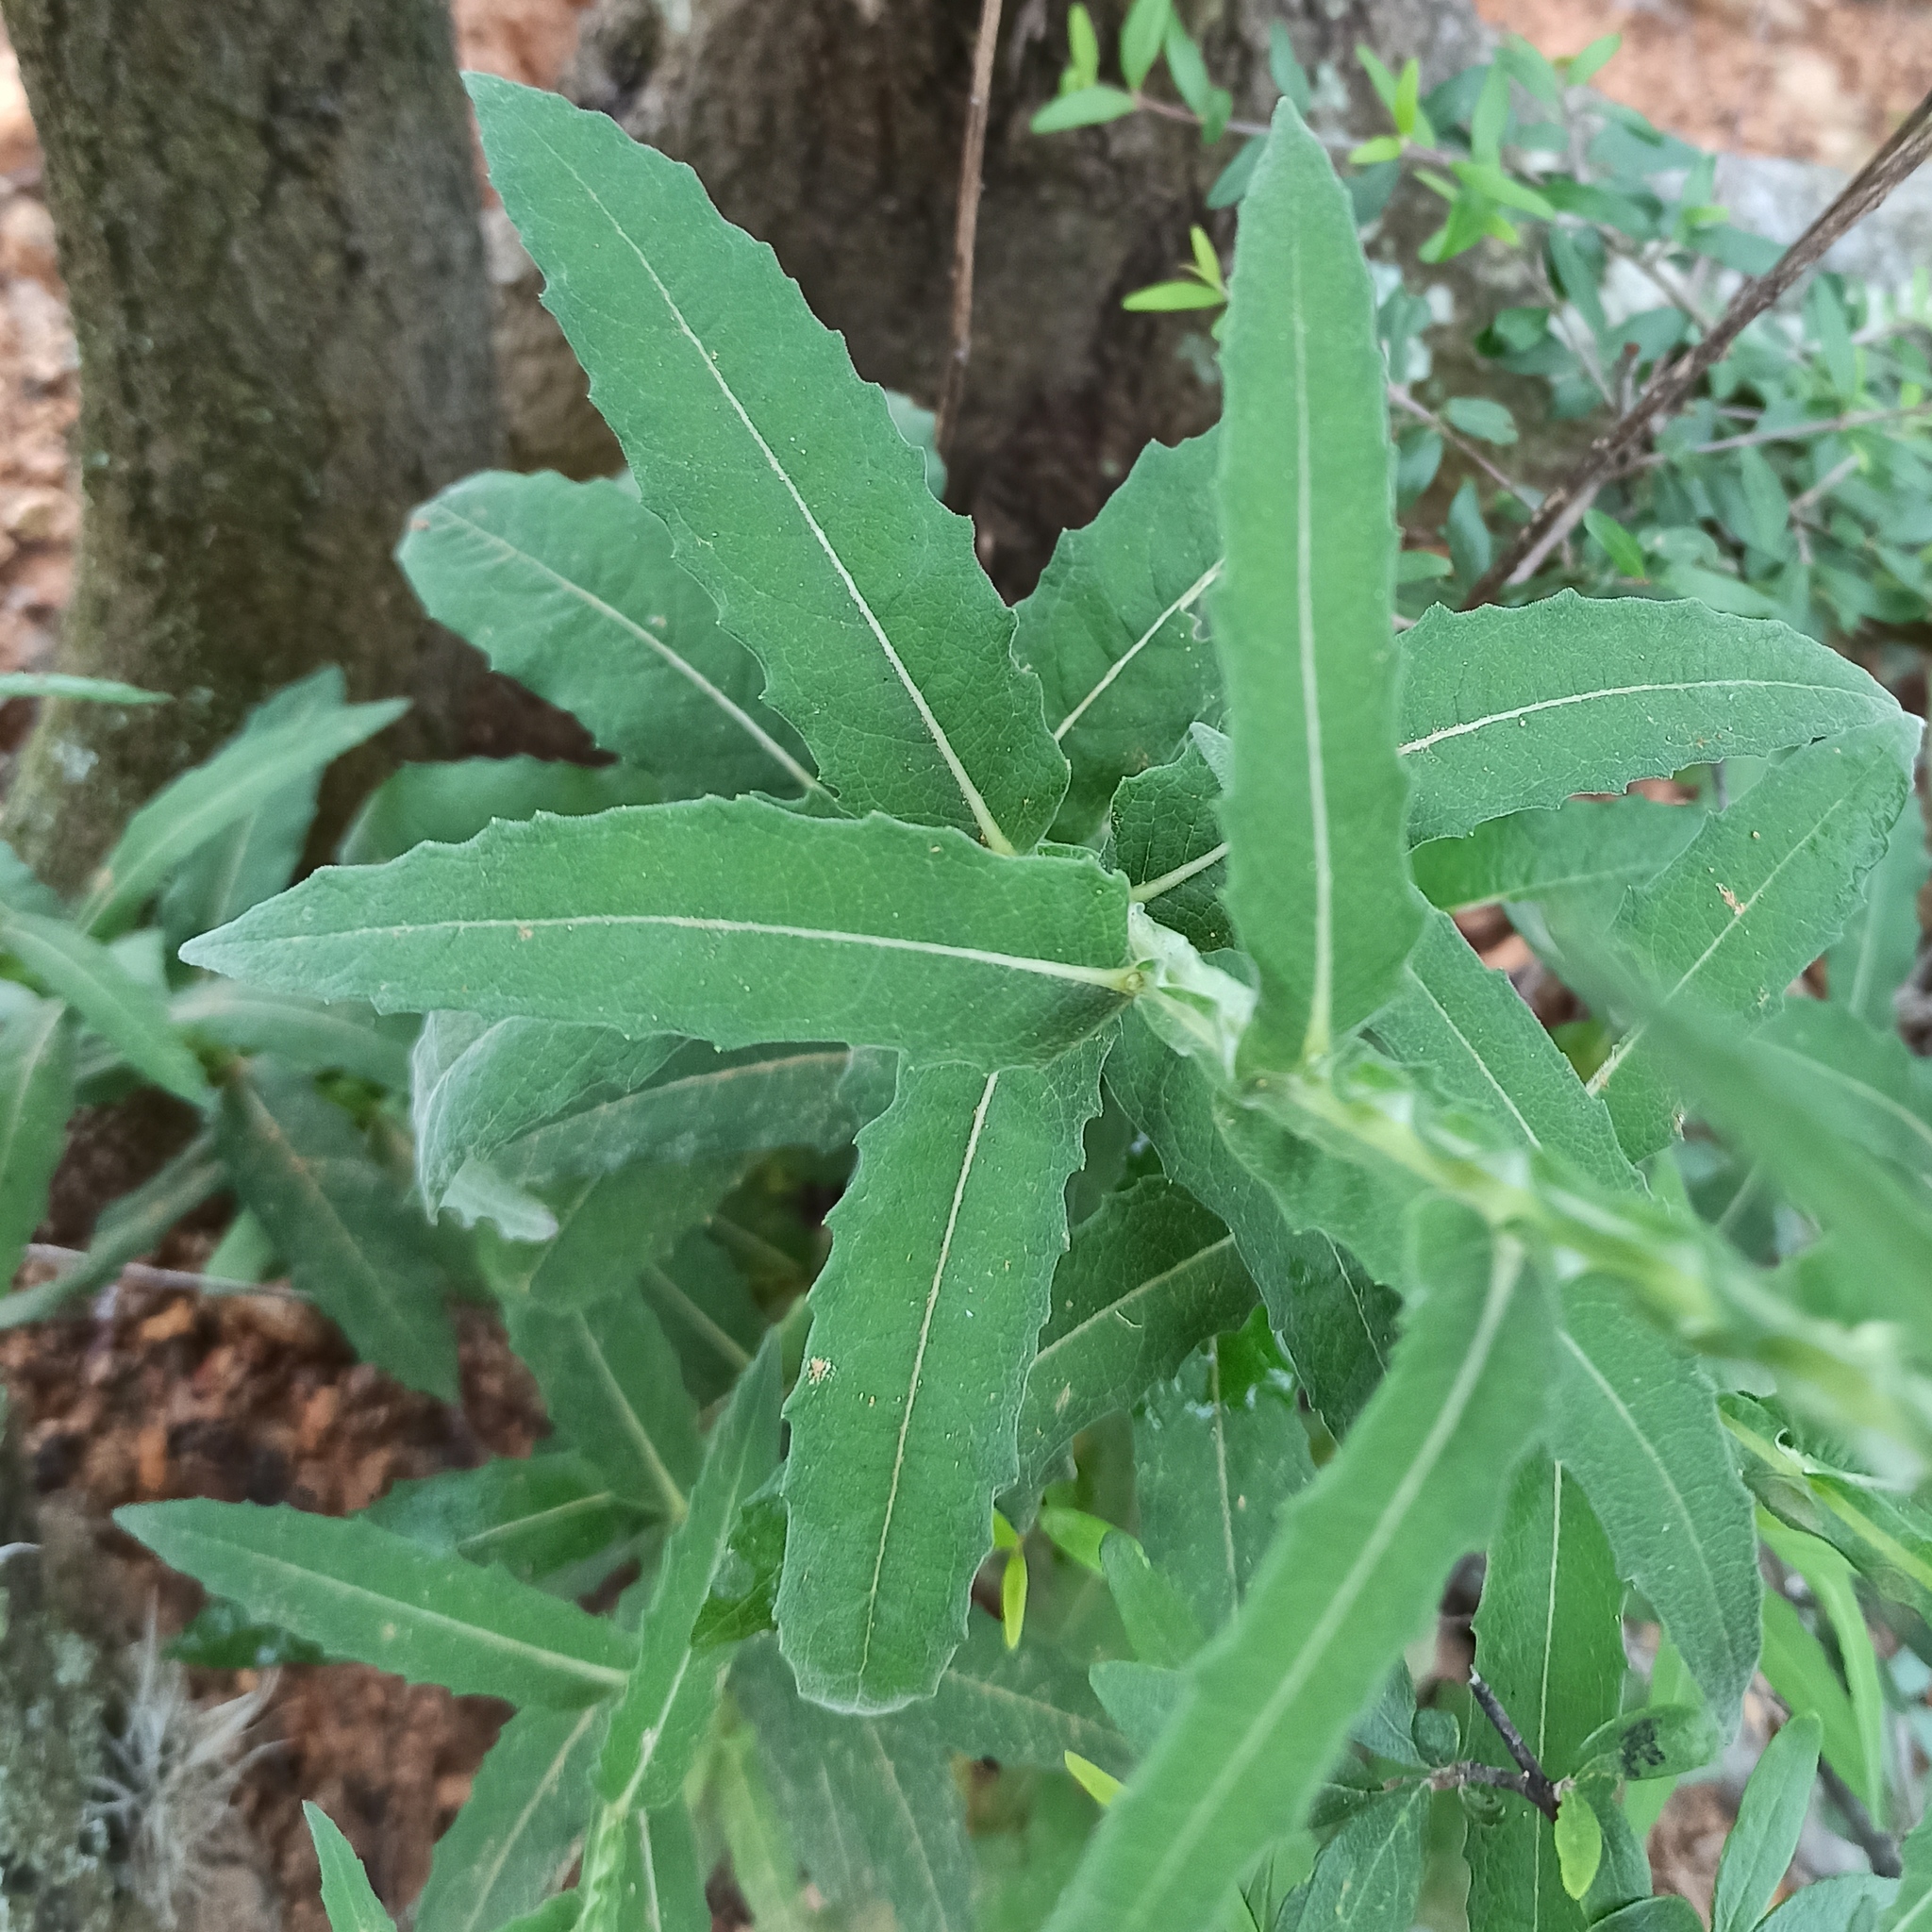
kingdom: Plantae
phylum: Tracheophyta
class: Magnoliopsida
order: Asterales
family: Asteraceae
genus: Verbesina
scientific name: Verbesina mollis
